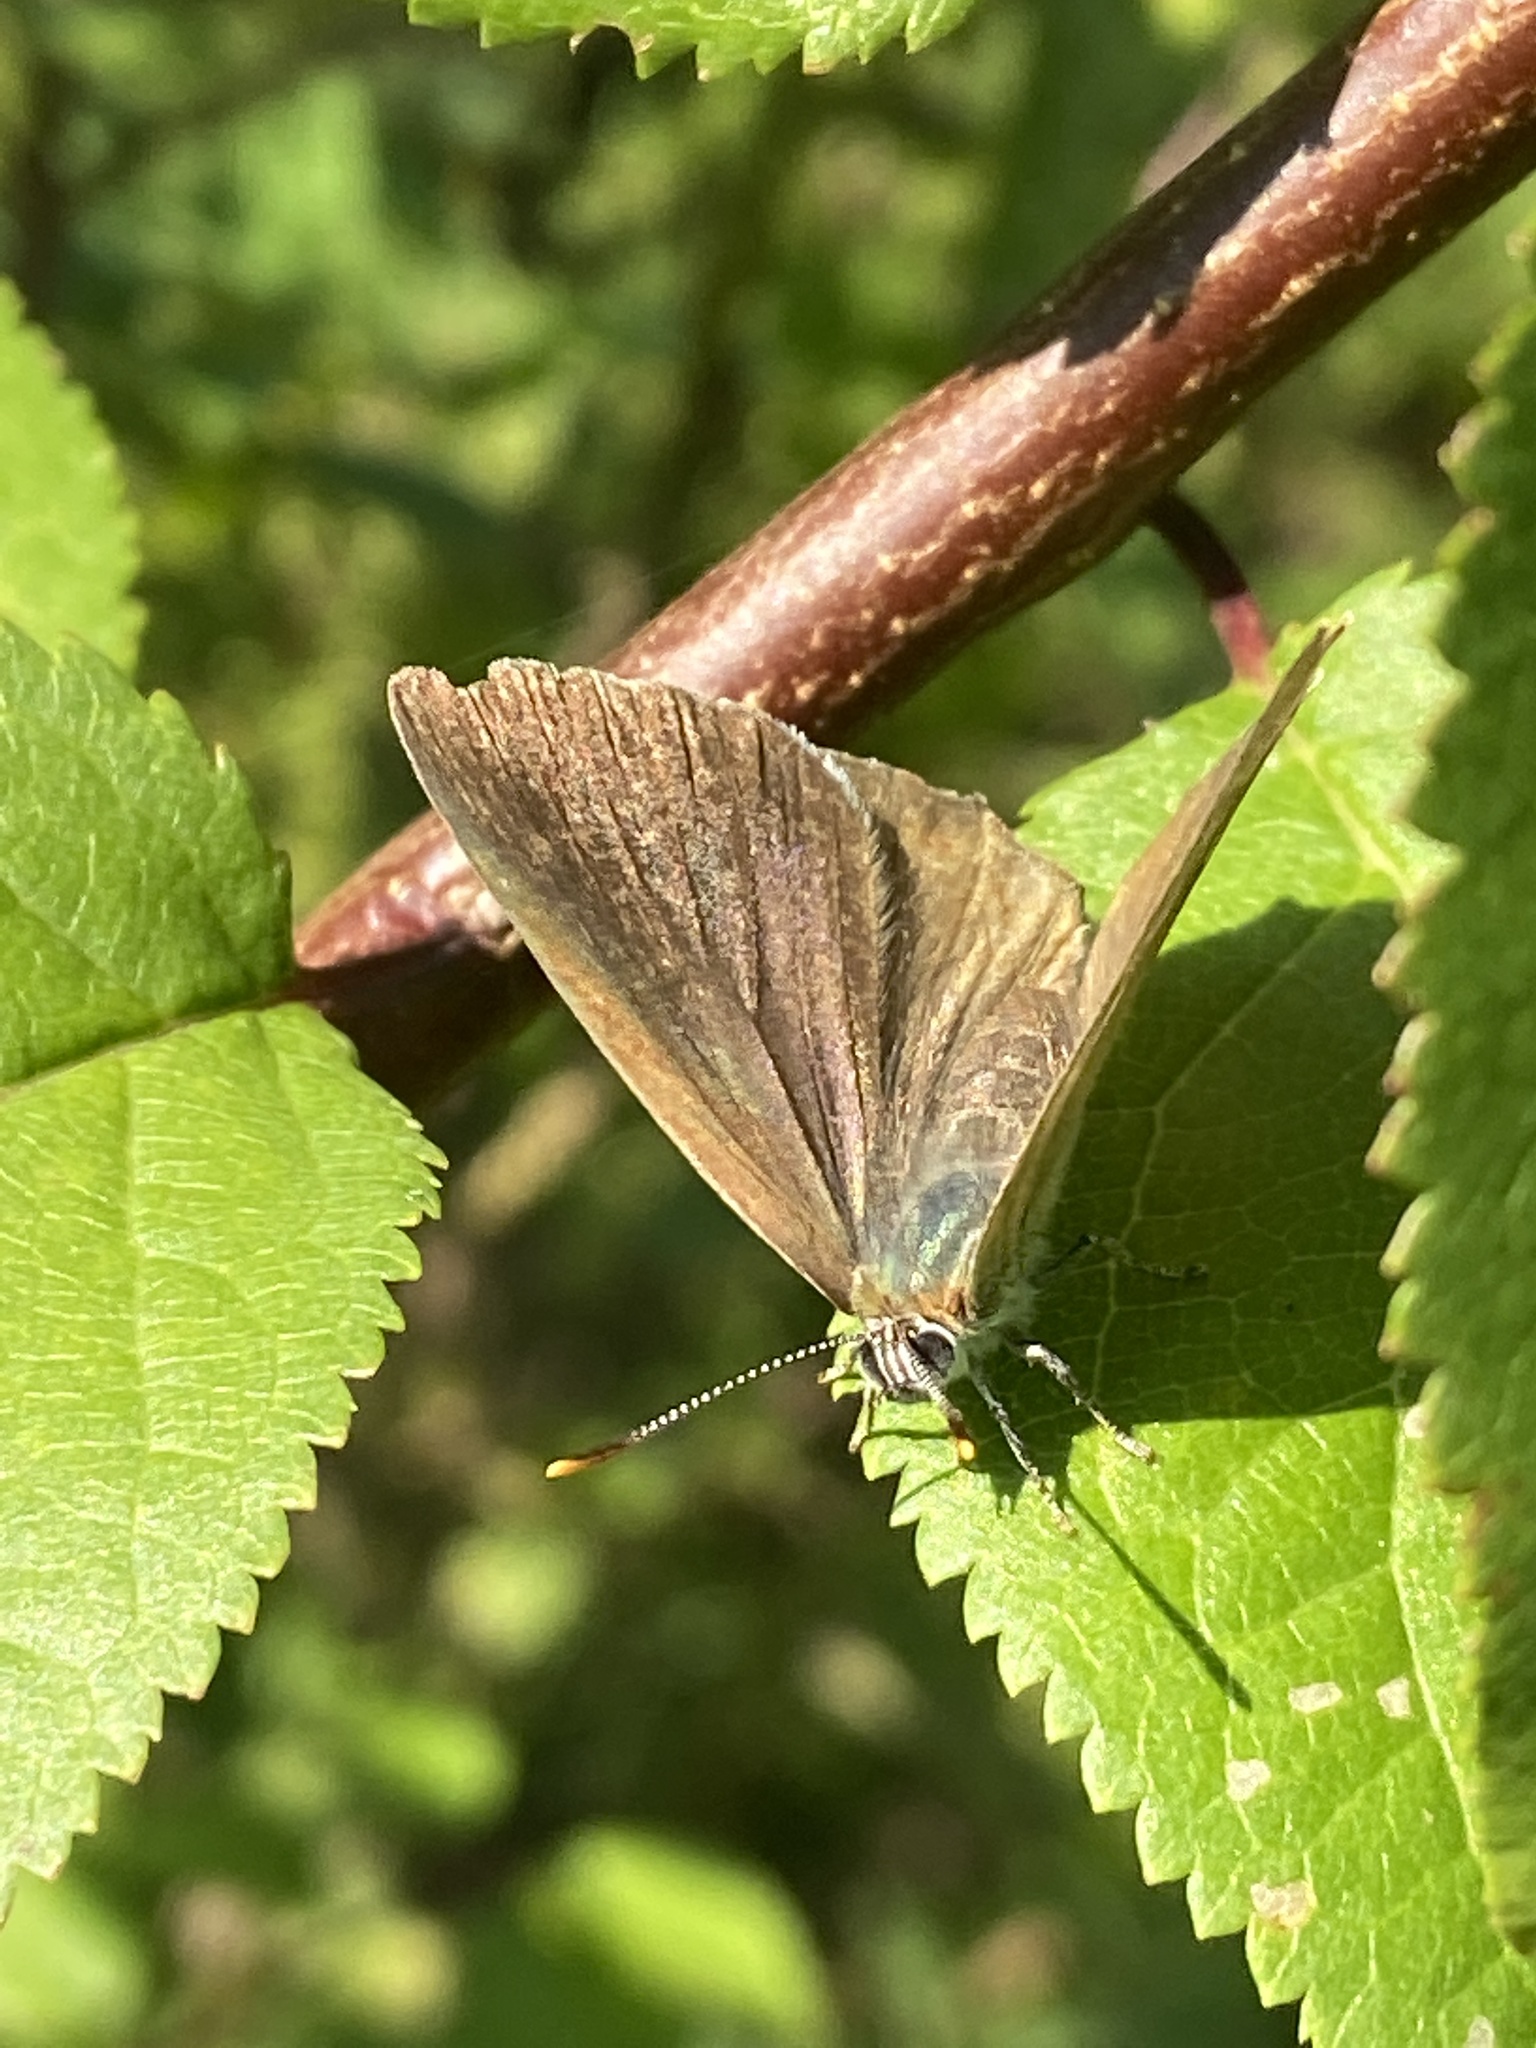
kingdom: Animalia
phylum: Arthropoda
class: Insecta
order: Lepidoptera
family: Lycaenidae
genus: Quercusia
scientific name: Quercusia quercus
